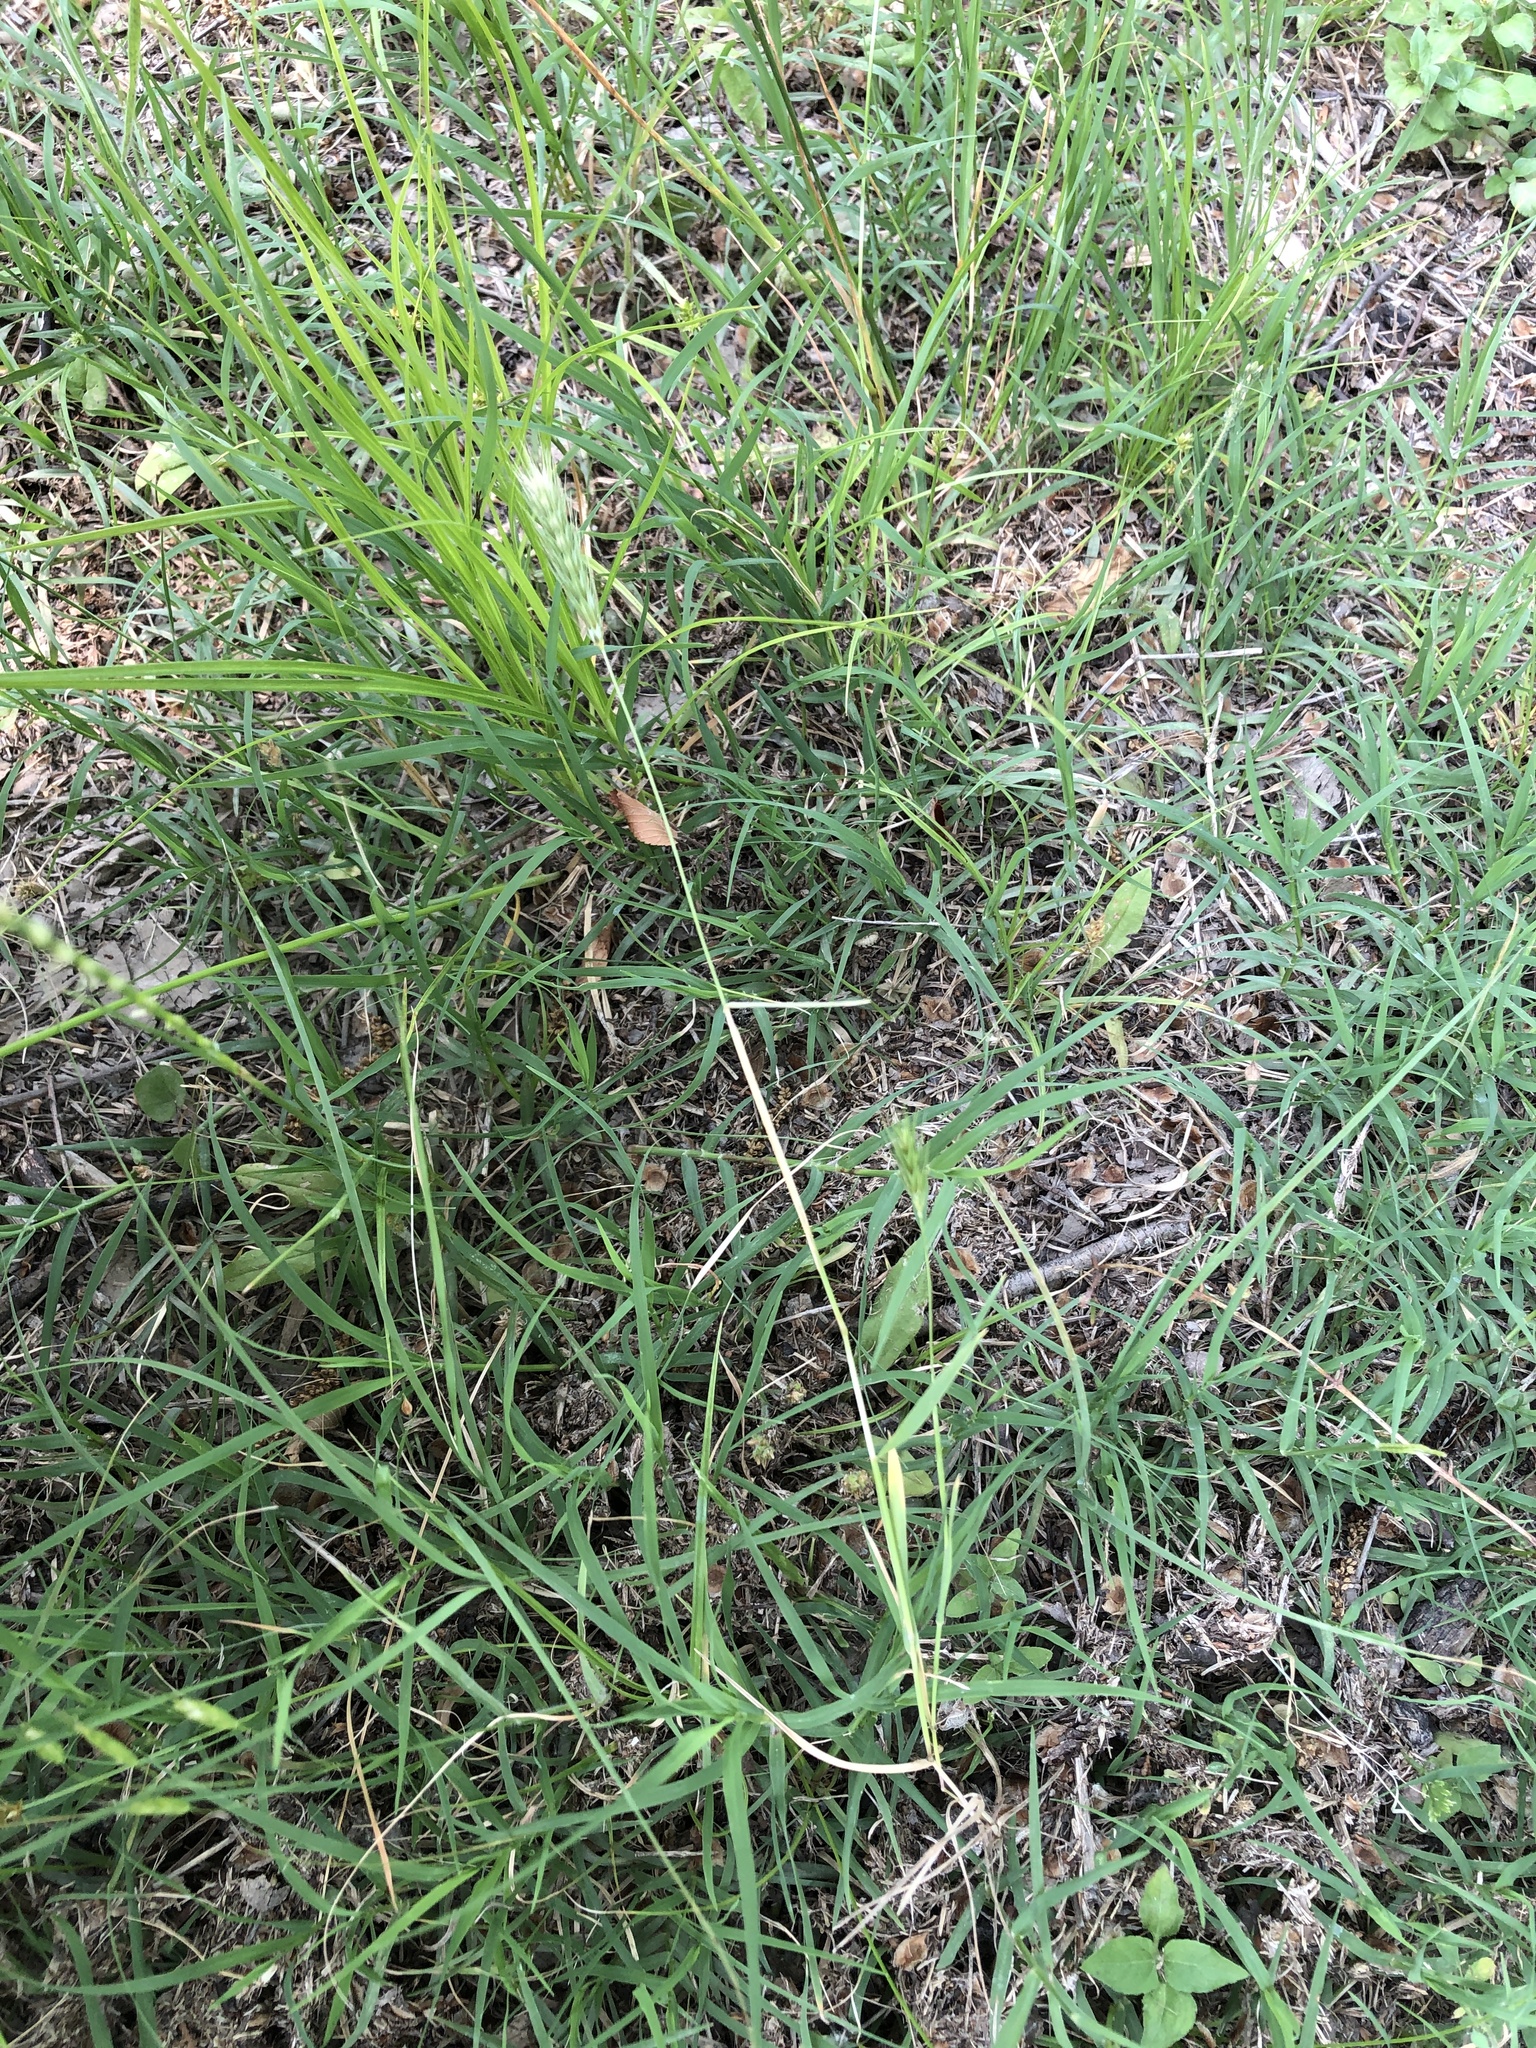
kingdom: Plantae
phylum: Tracheophyta
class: Liliopsida
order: Poales
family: Poaceae
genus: Hordeum
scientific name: Hordeum pusillum
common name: Little barley
